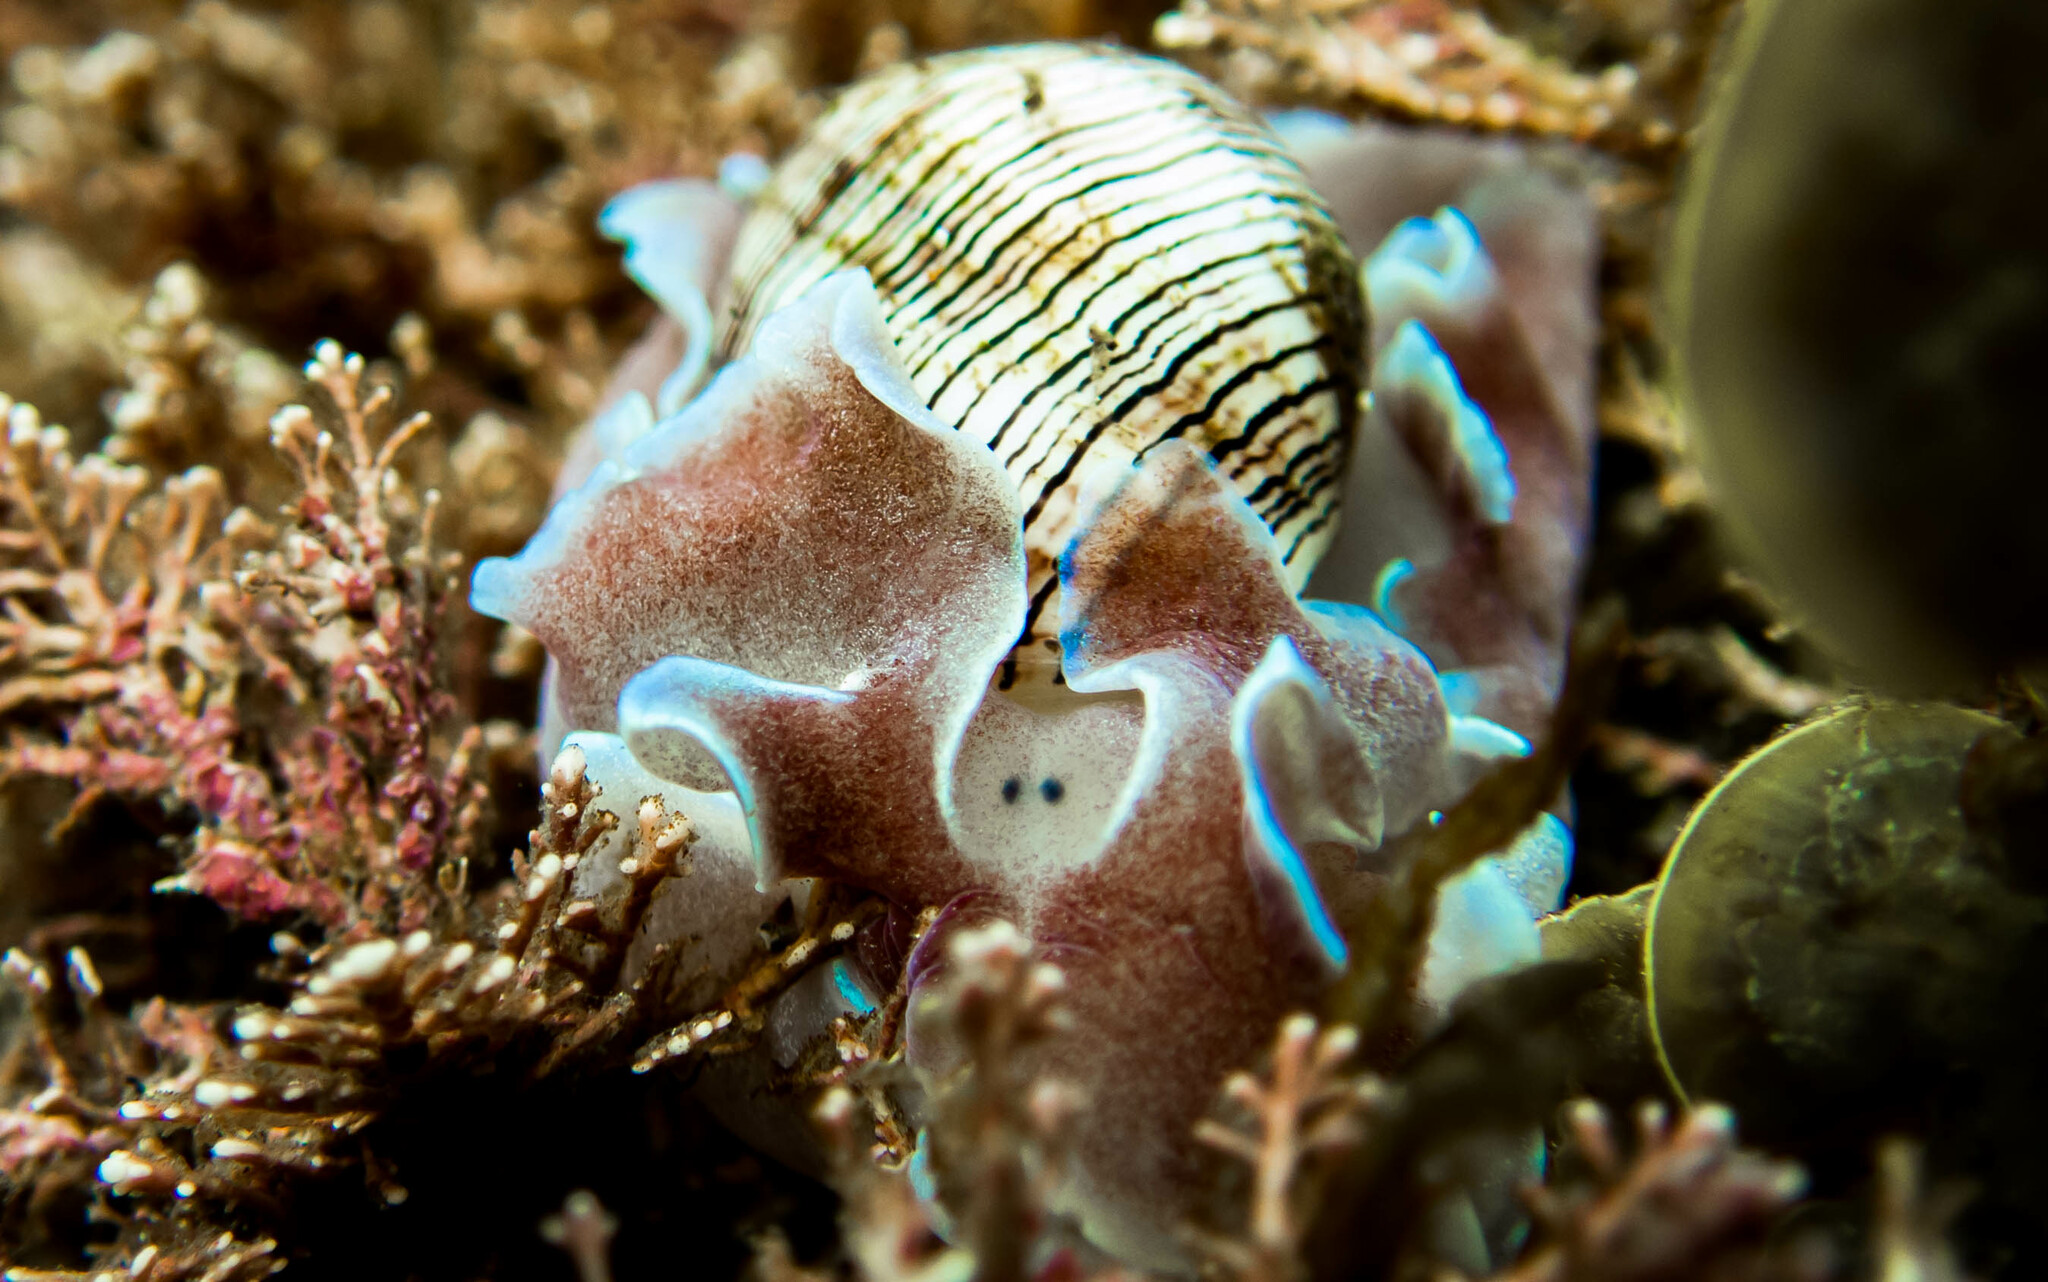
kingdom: Animalia
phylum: Mollusca
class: Gastropoda
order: Cephalaspidea
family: Aplustridae
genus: Hydatina
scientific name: Hydatina physis
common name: Brown-line paperbubble
